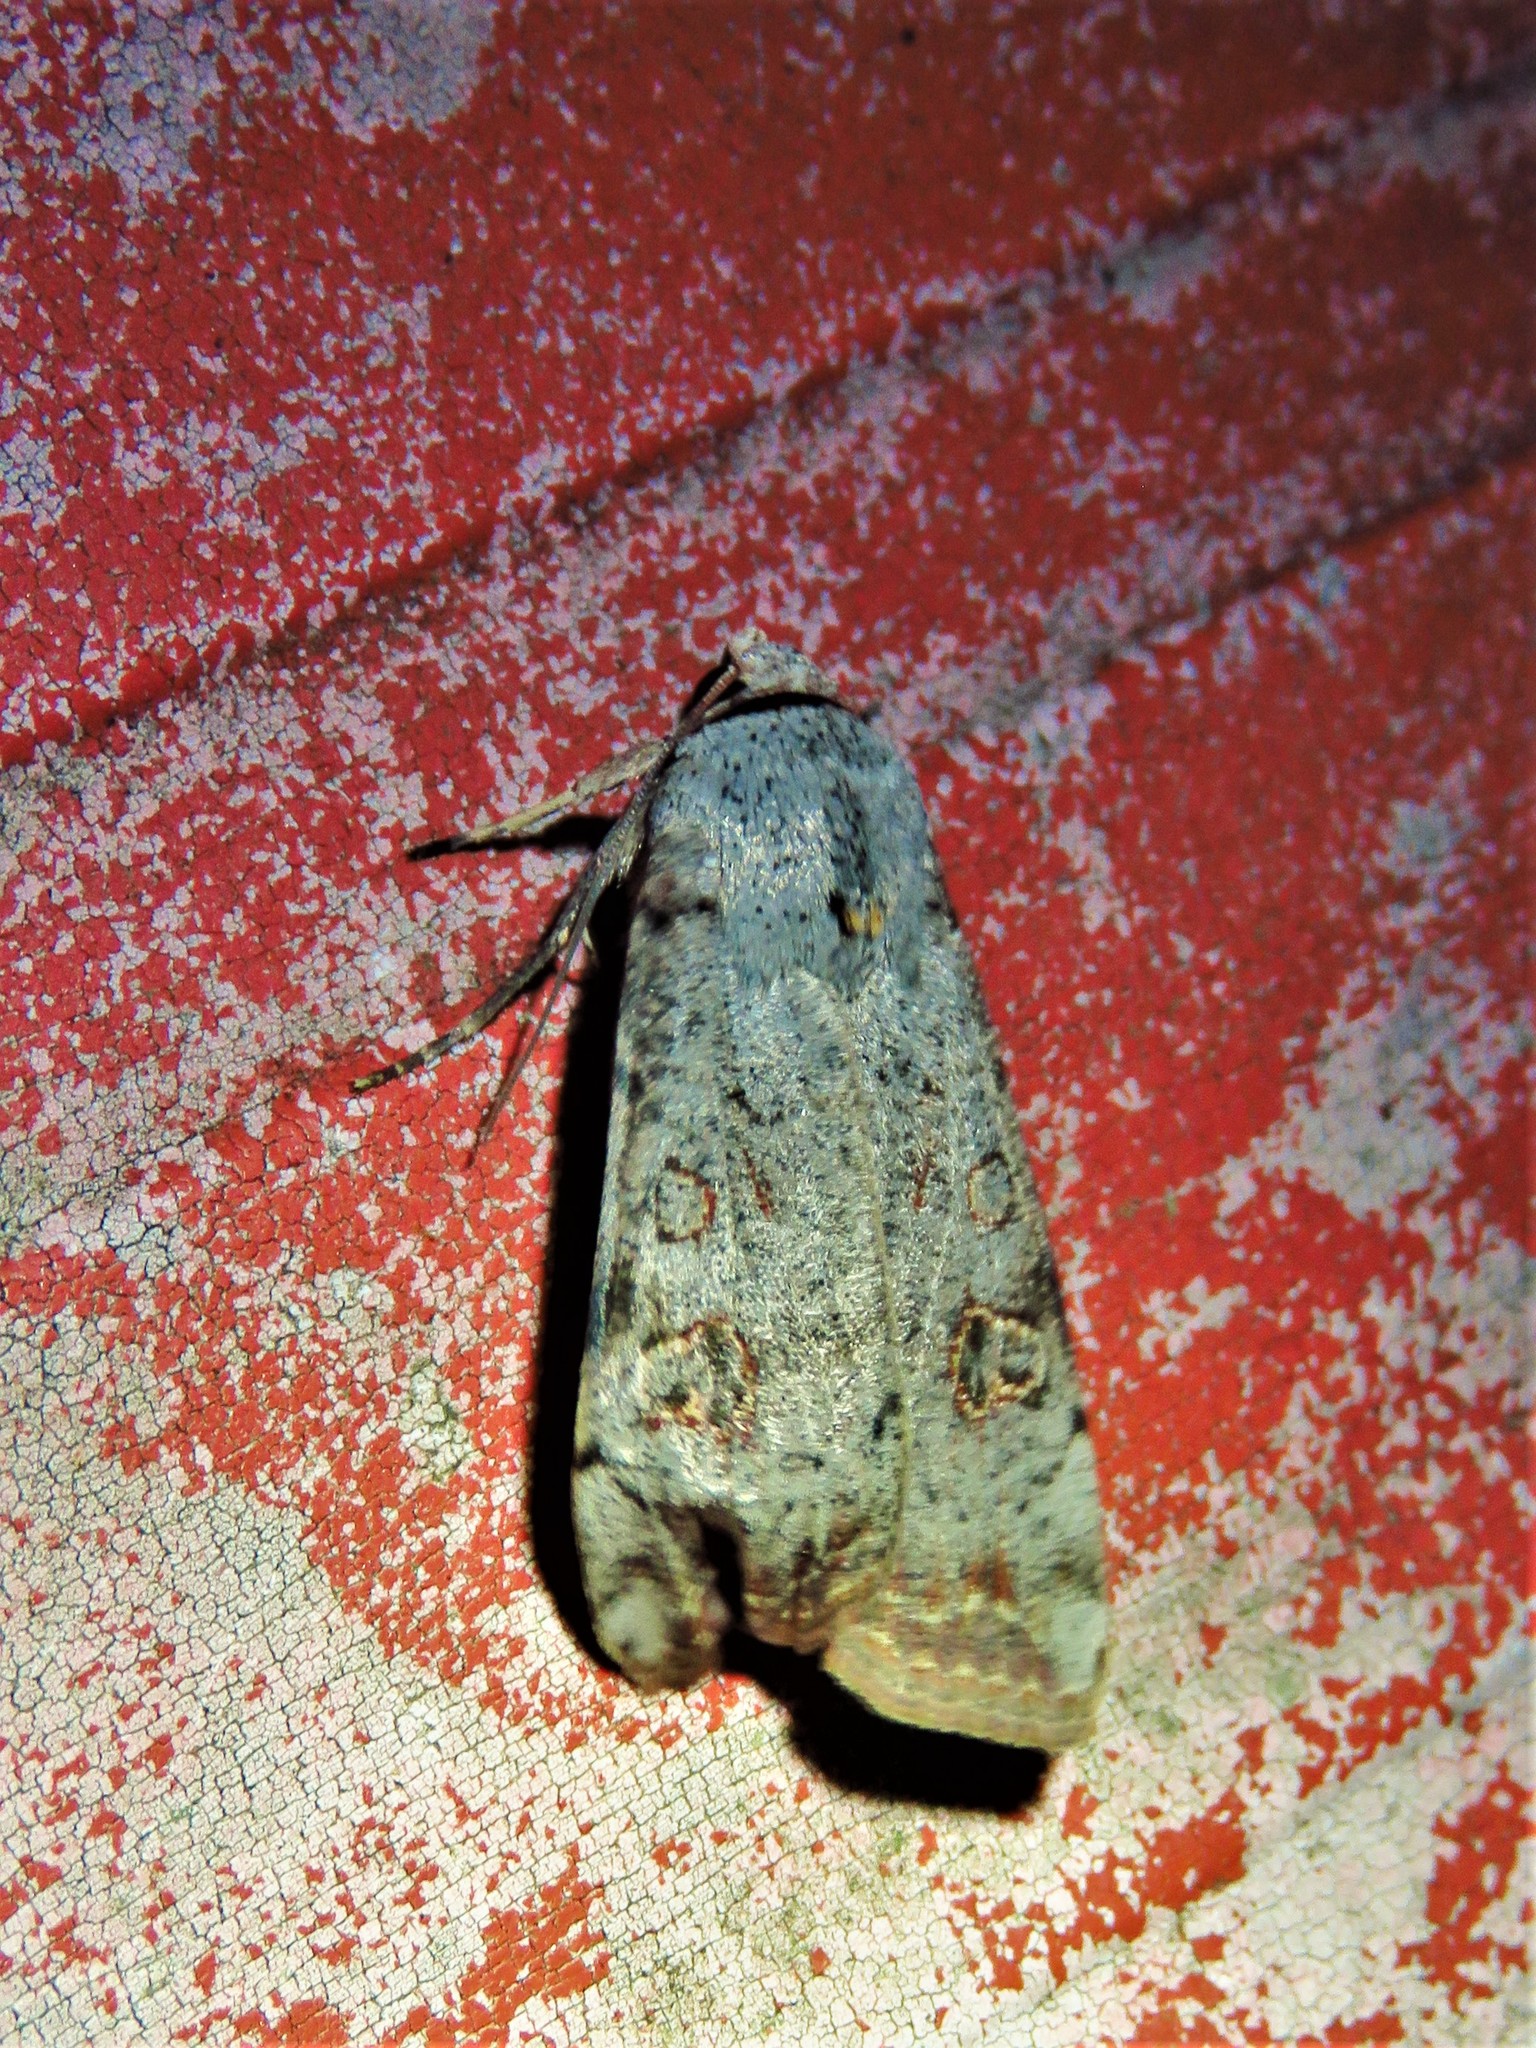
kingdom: Animalia
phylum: Arthropoda
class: Insecta
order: Lepidoptera
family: Noctuidae
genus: Anicla
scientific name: Anicla infecta
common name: Green cutworm
